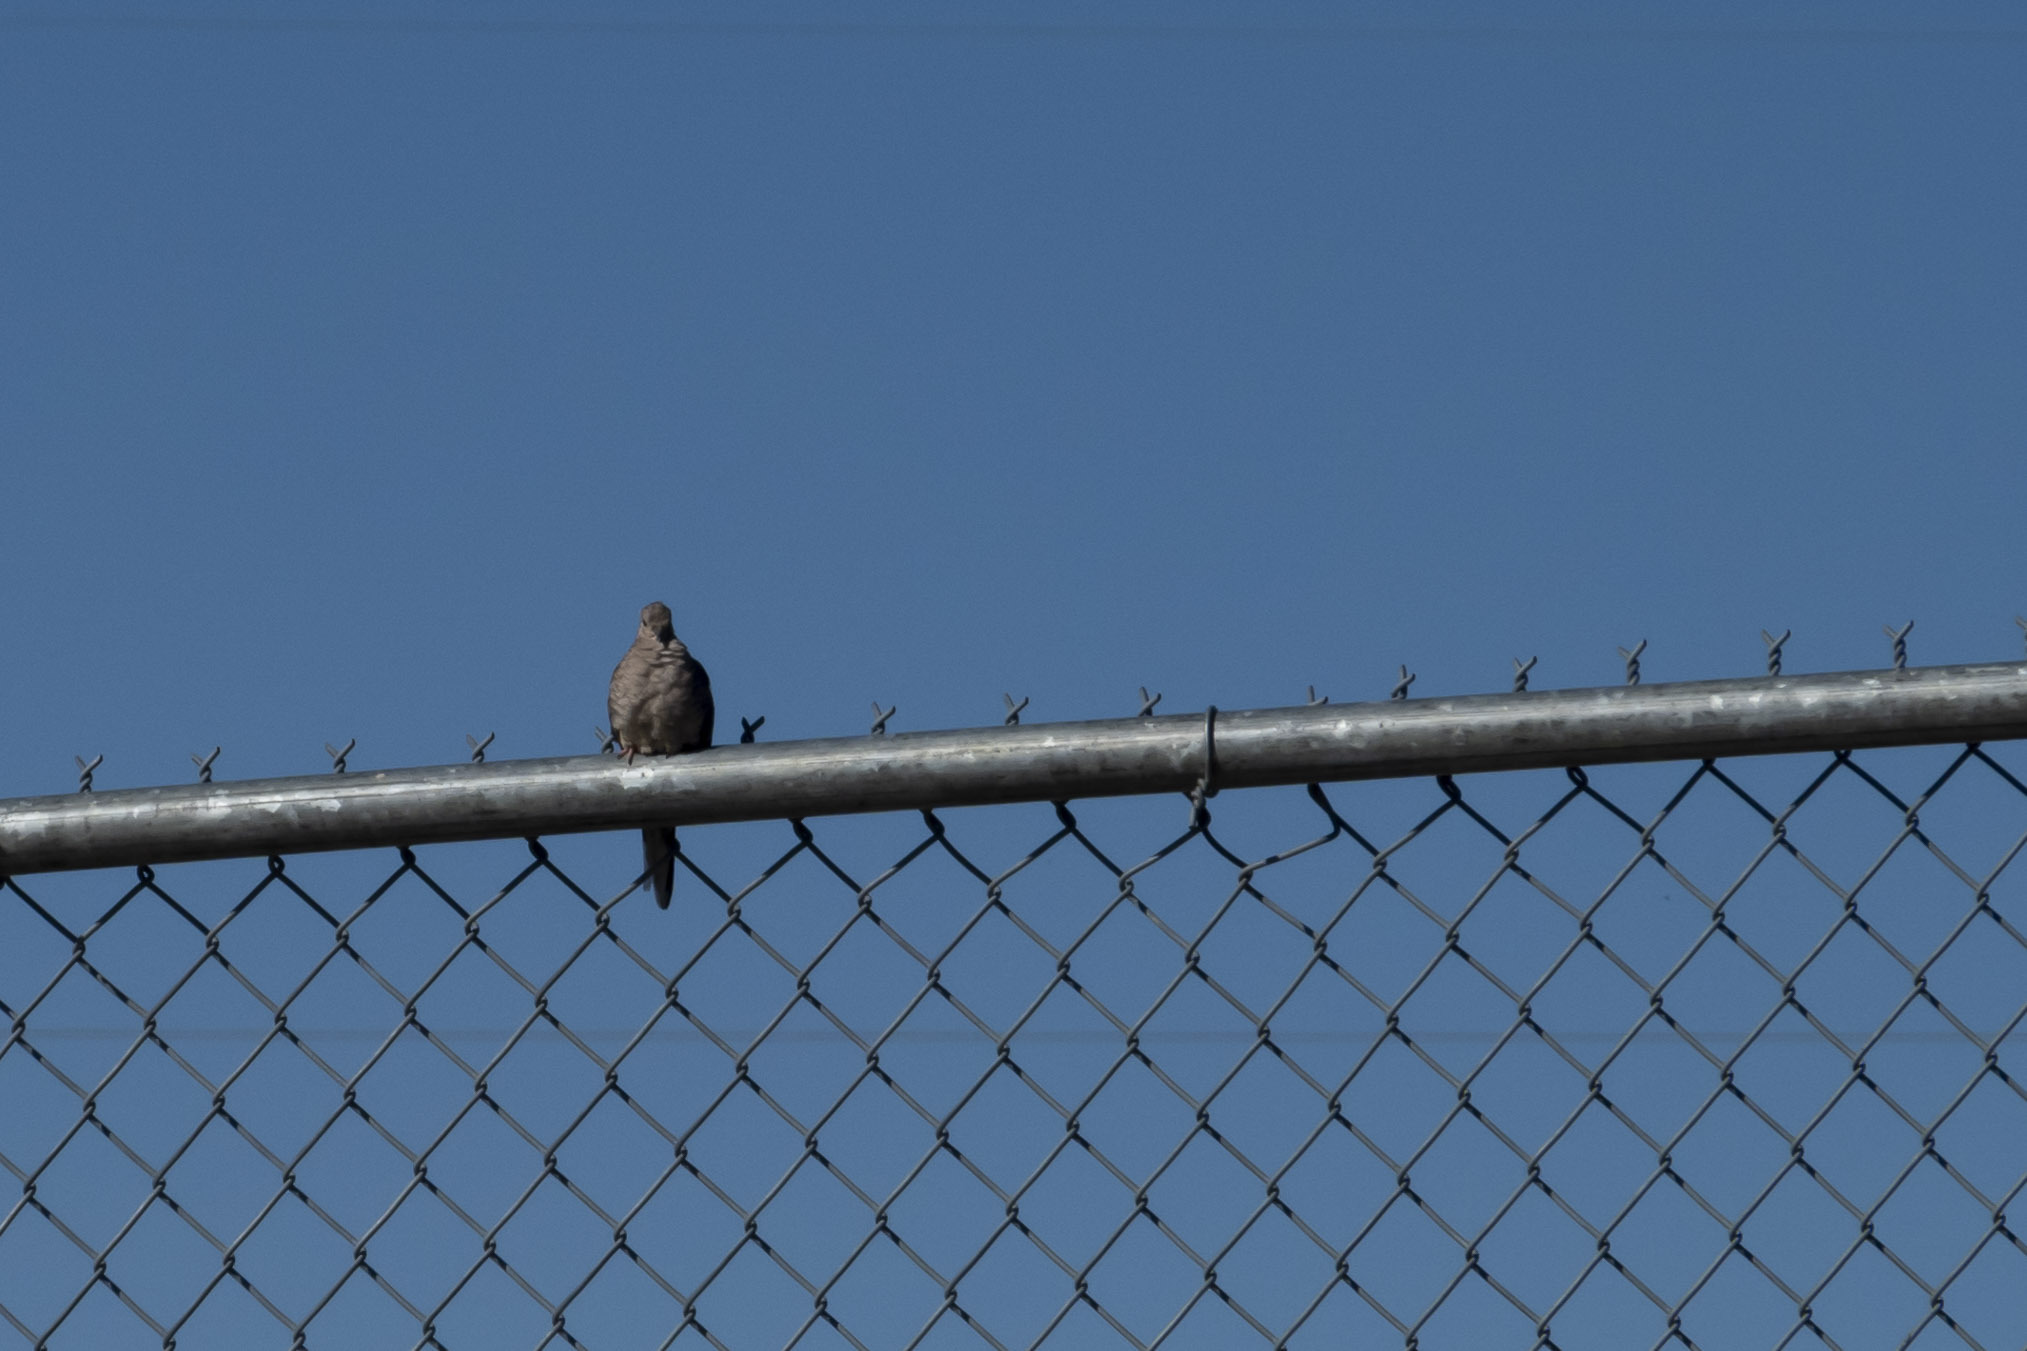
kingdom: Animalia
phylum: Chordata
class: Aves
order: Columbiformes
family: Columbidae
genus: Columbina
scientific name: Columbina inca
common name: Inca dove
